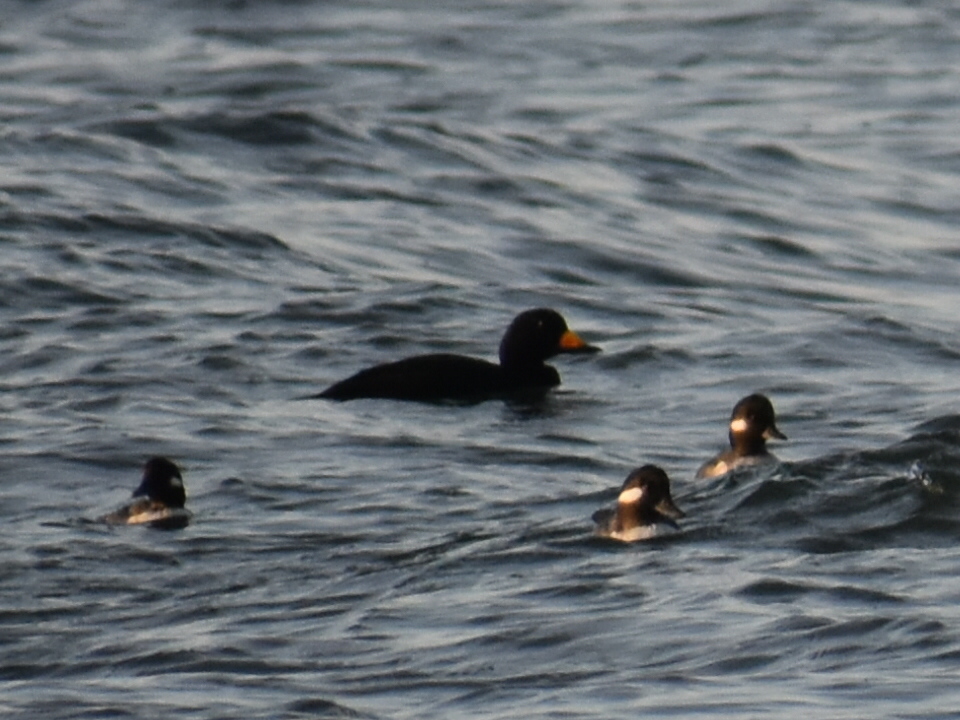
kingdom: Animalia
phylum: Chordata
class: Aves
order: Anseriformes
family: Anatidae
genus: Melanitta
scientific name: Melanitta americana
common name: Black scoter
